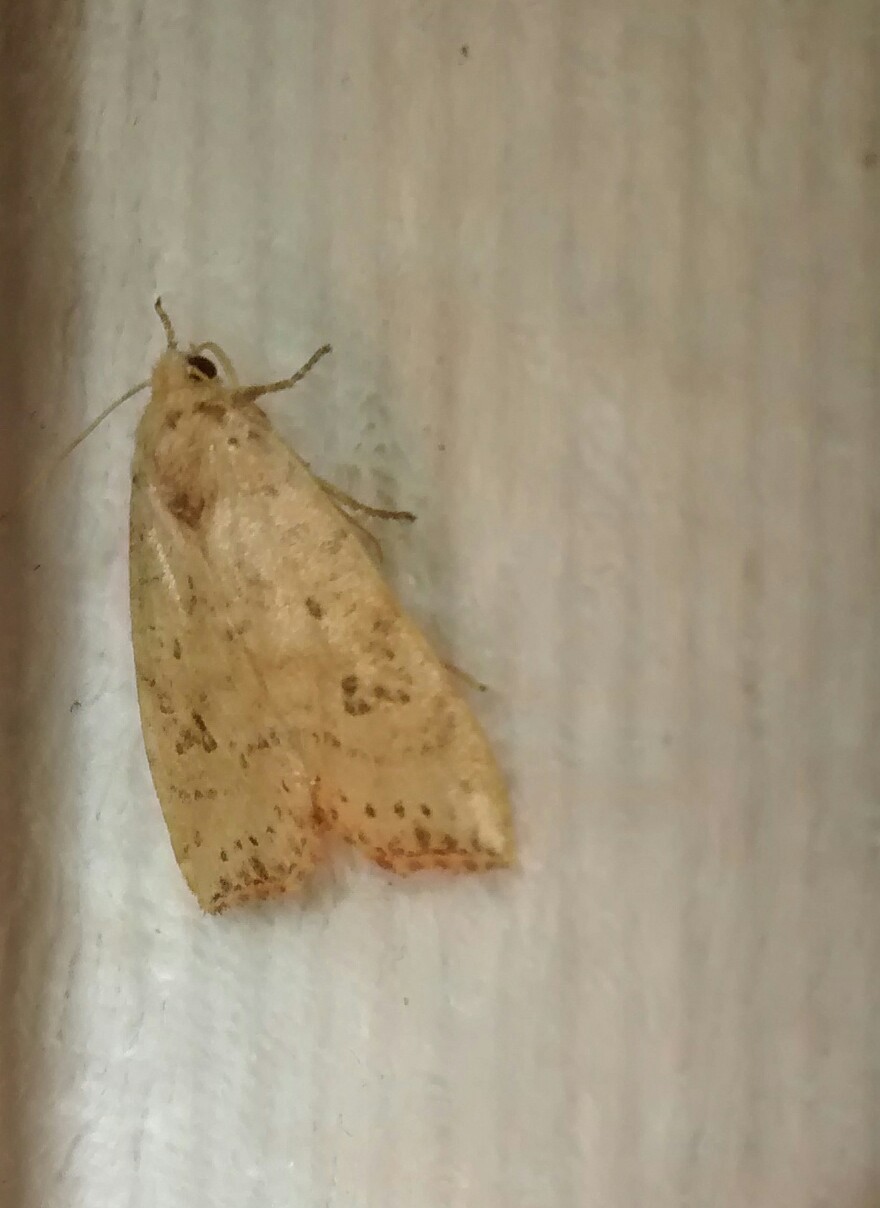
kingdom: Animalia
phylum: Arthropoda
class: Insecta
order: Lepidoptera
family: Noctuidae
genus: Anathix
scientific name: Anathix ralla
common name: Dotted sallow
